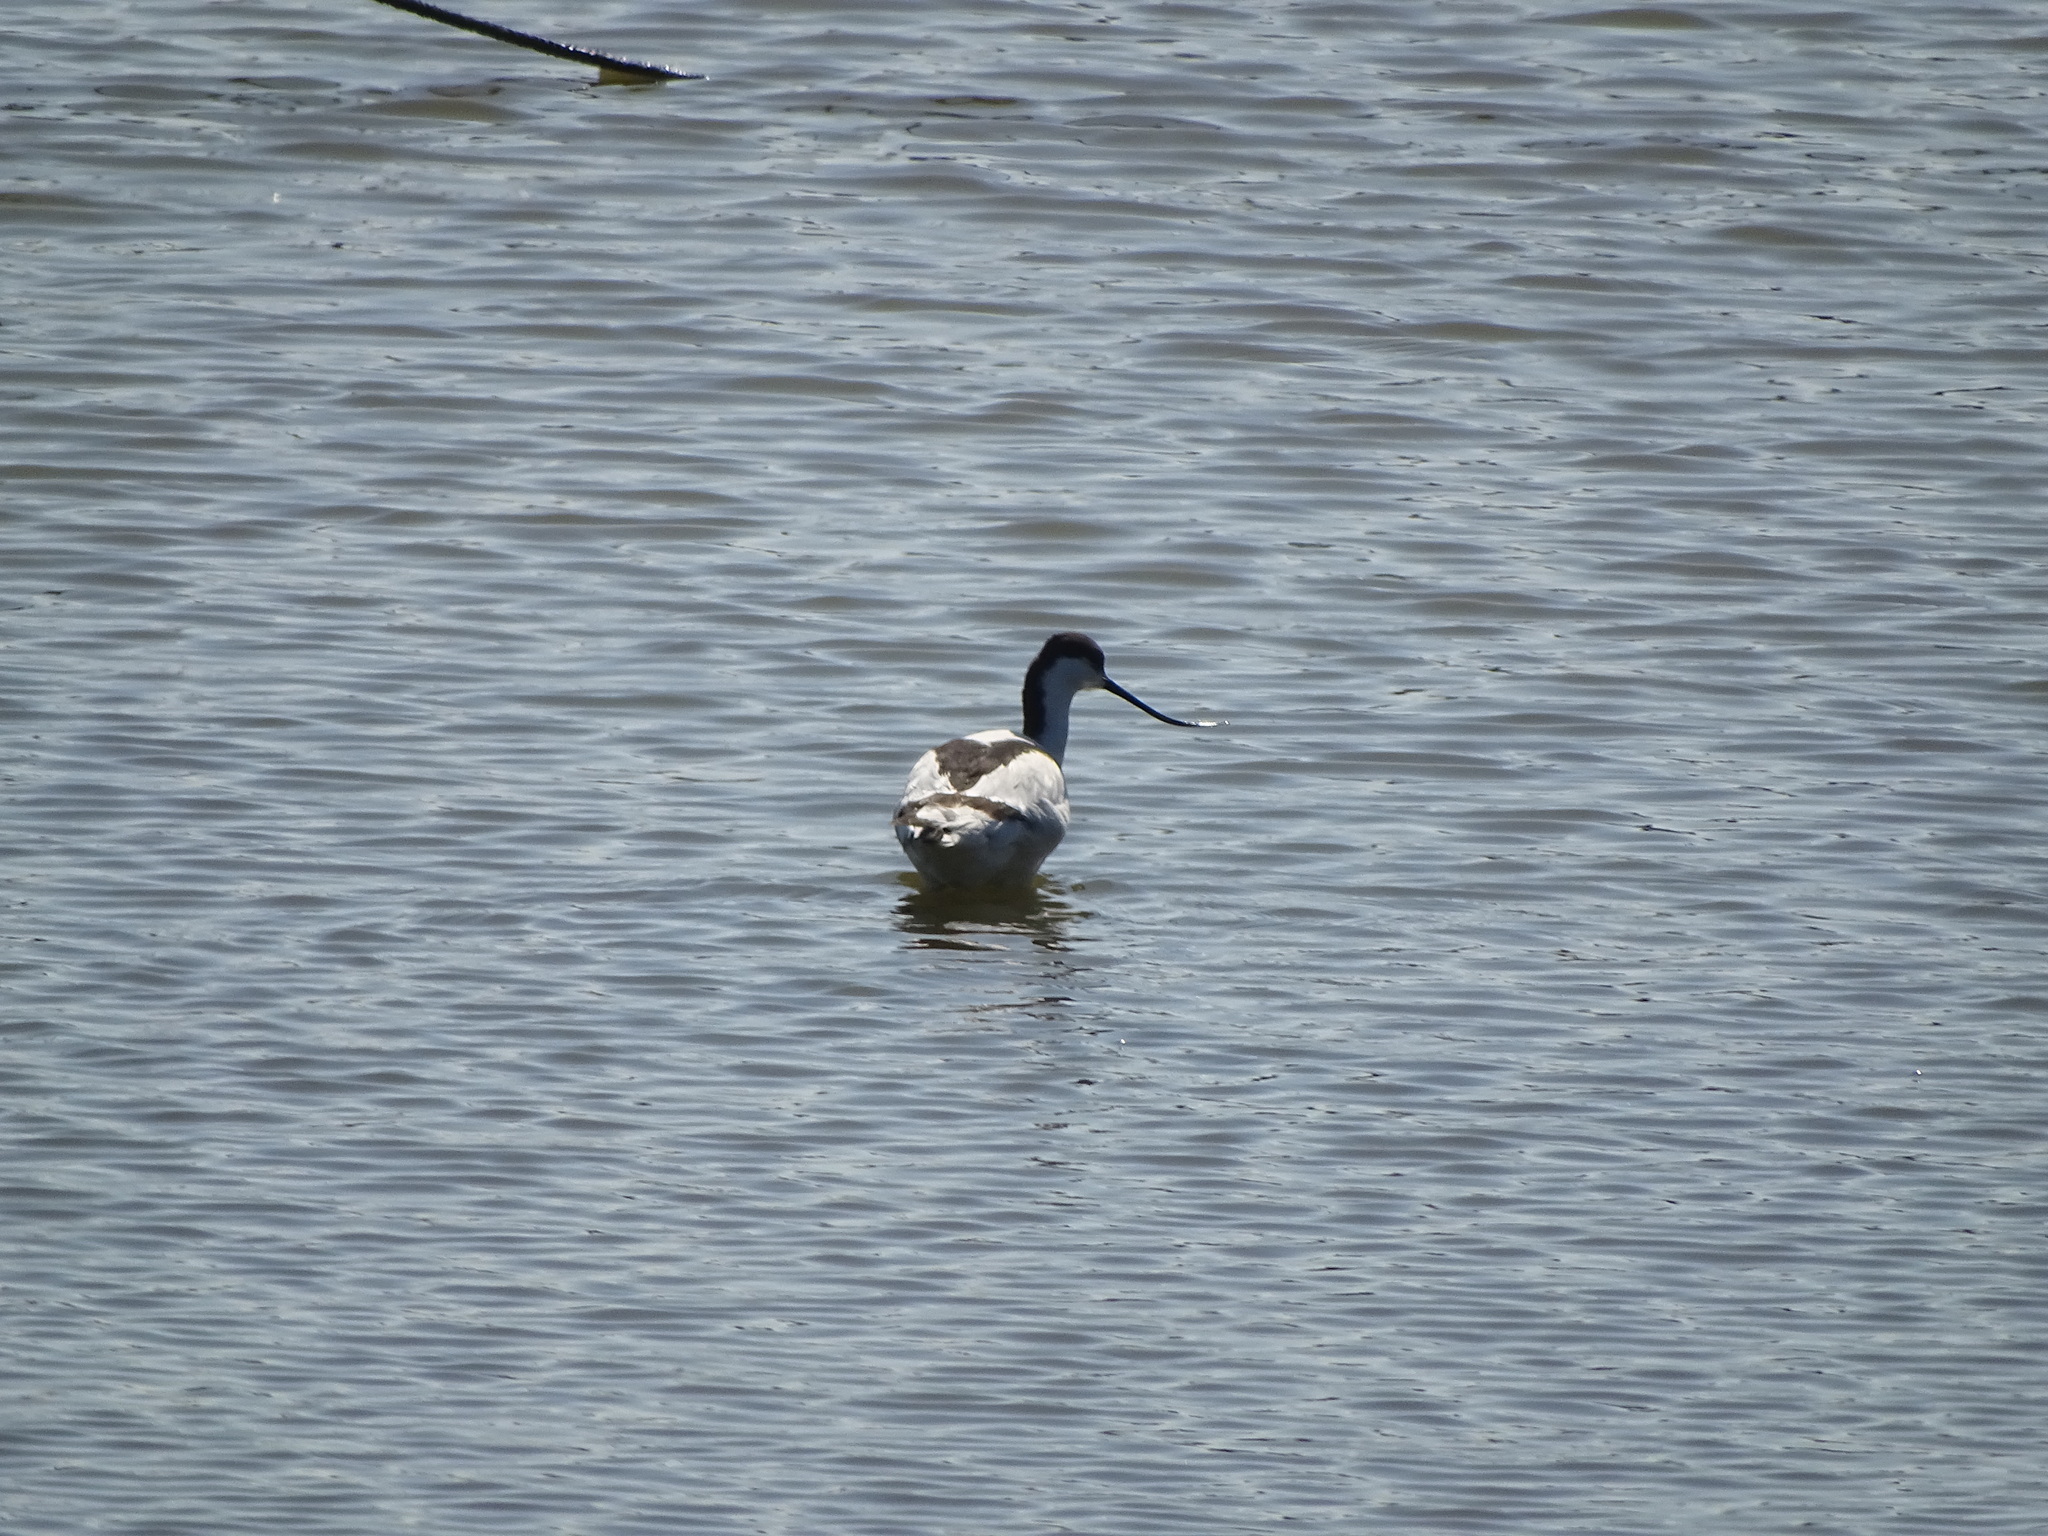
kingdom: Animalia
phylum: Chordata
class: Aves
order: Charadriiformes
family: Recurvirostridae
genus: Recurvirostra
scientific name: Recurvirostra avosetta
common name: Pied avocet
